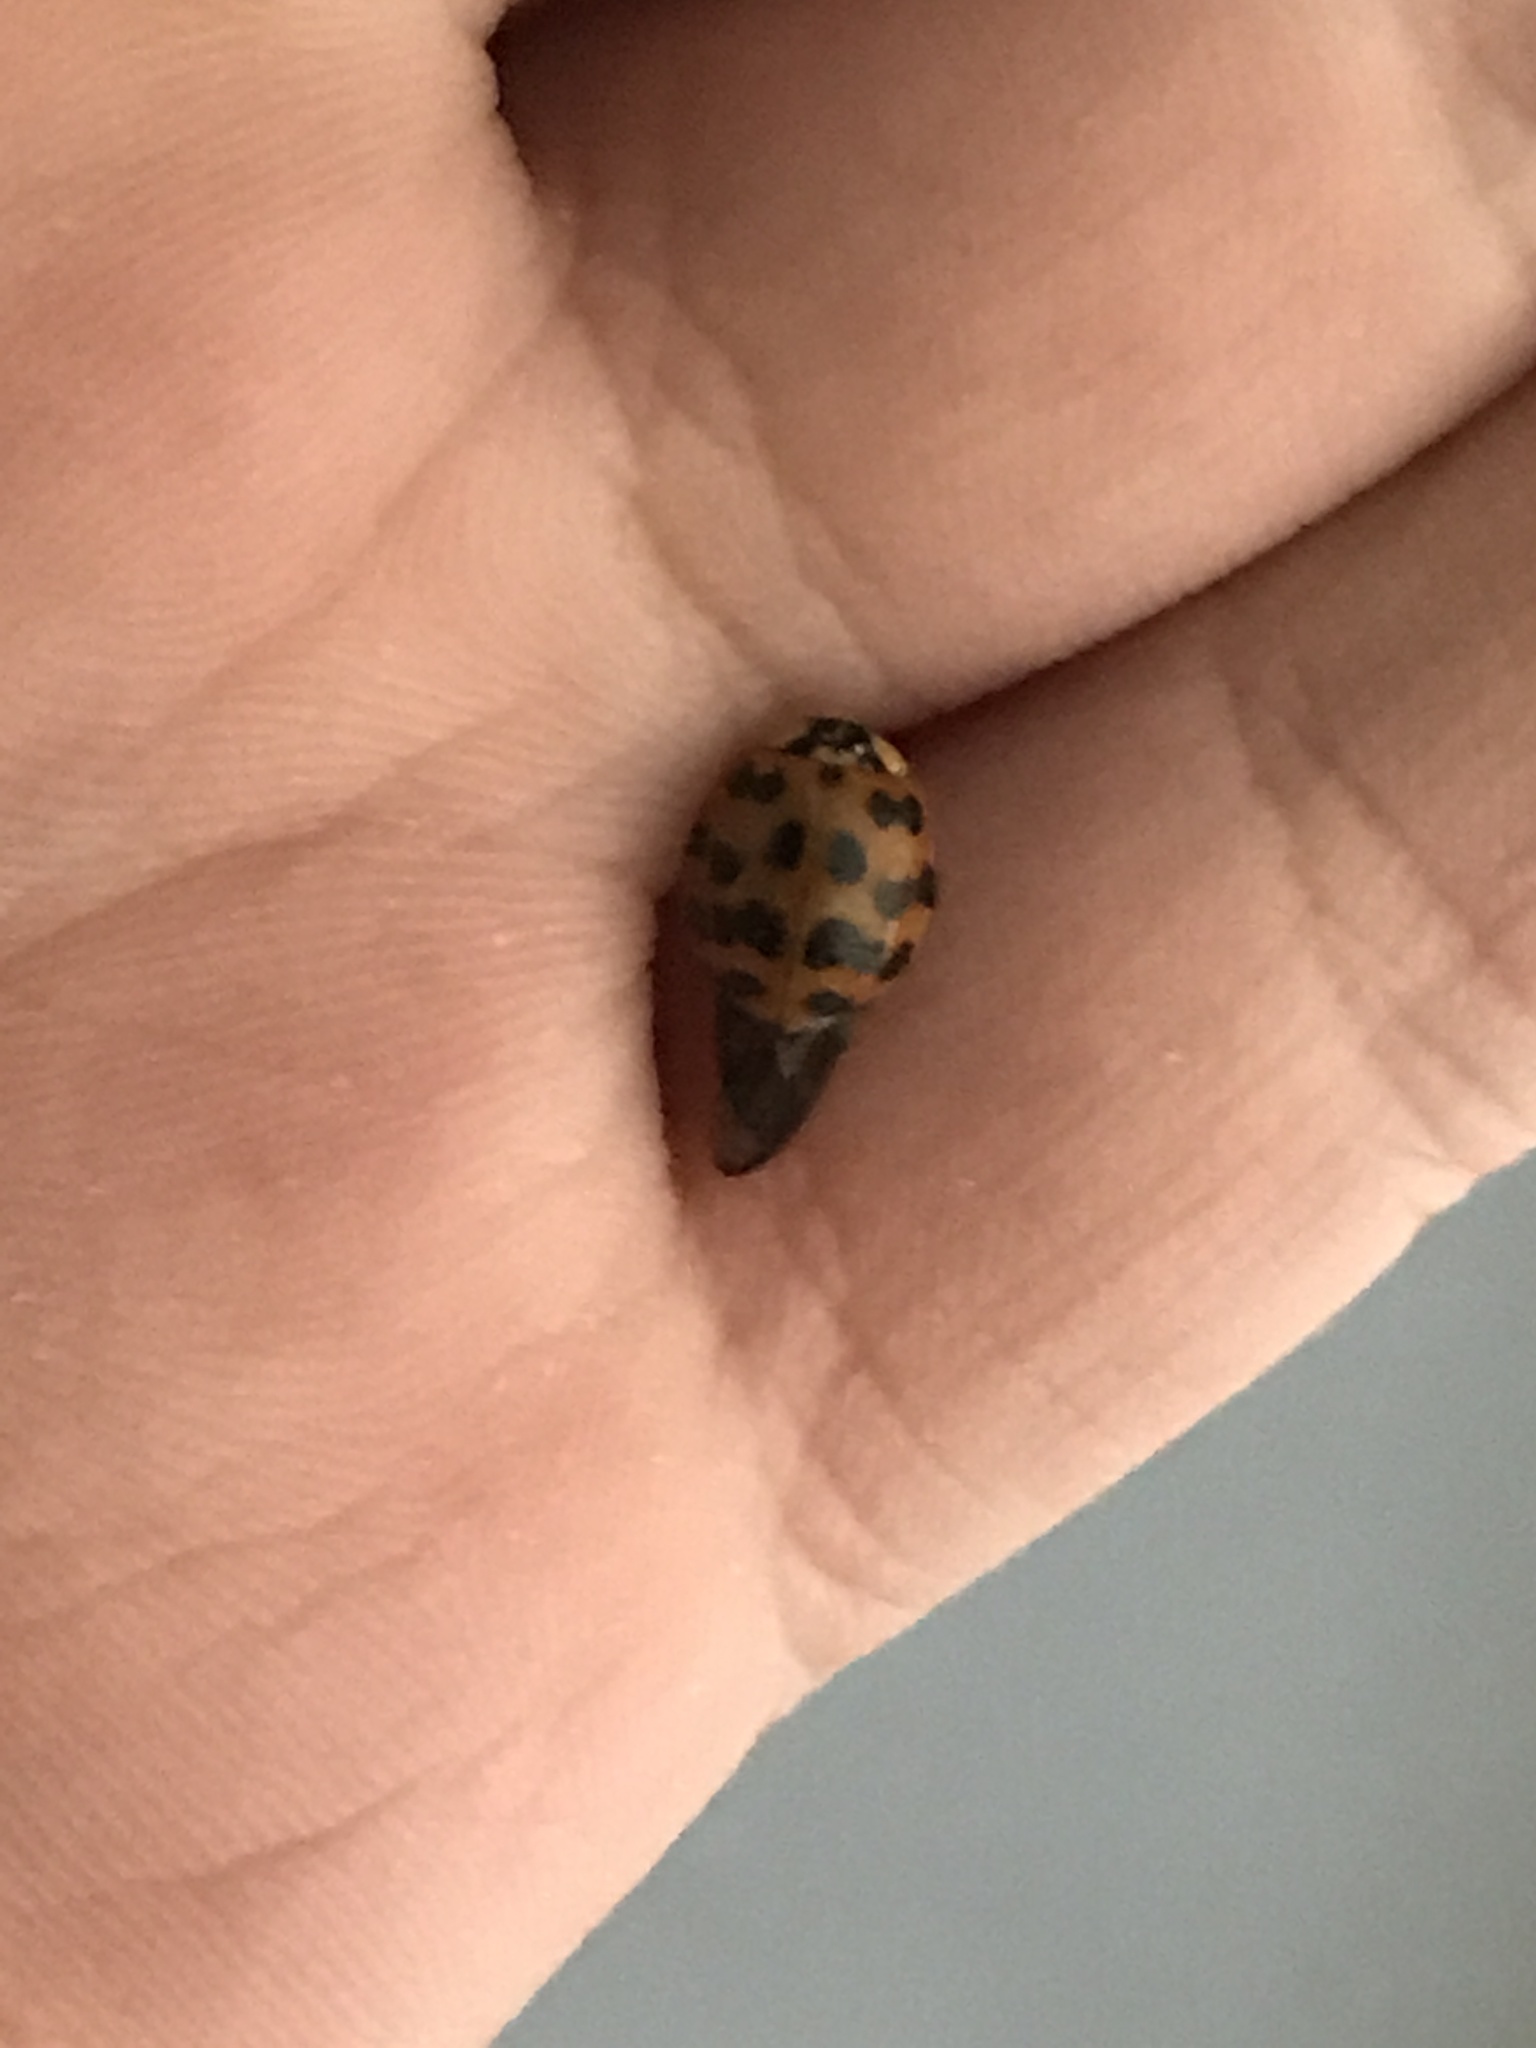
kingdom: Animalia
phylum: Arthropoda
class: Insecta
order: Coleoptera
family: Coccinellidae
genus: Harmonia
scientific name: Harmonia axyridis
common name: Harlequin ladybird
